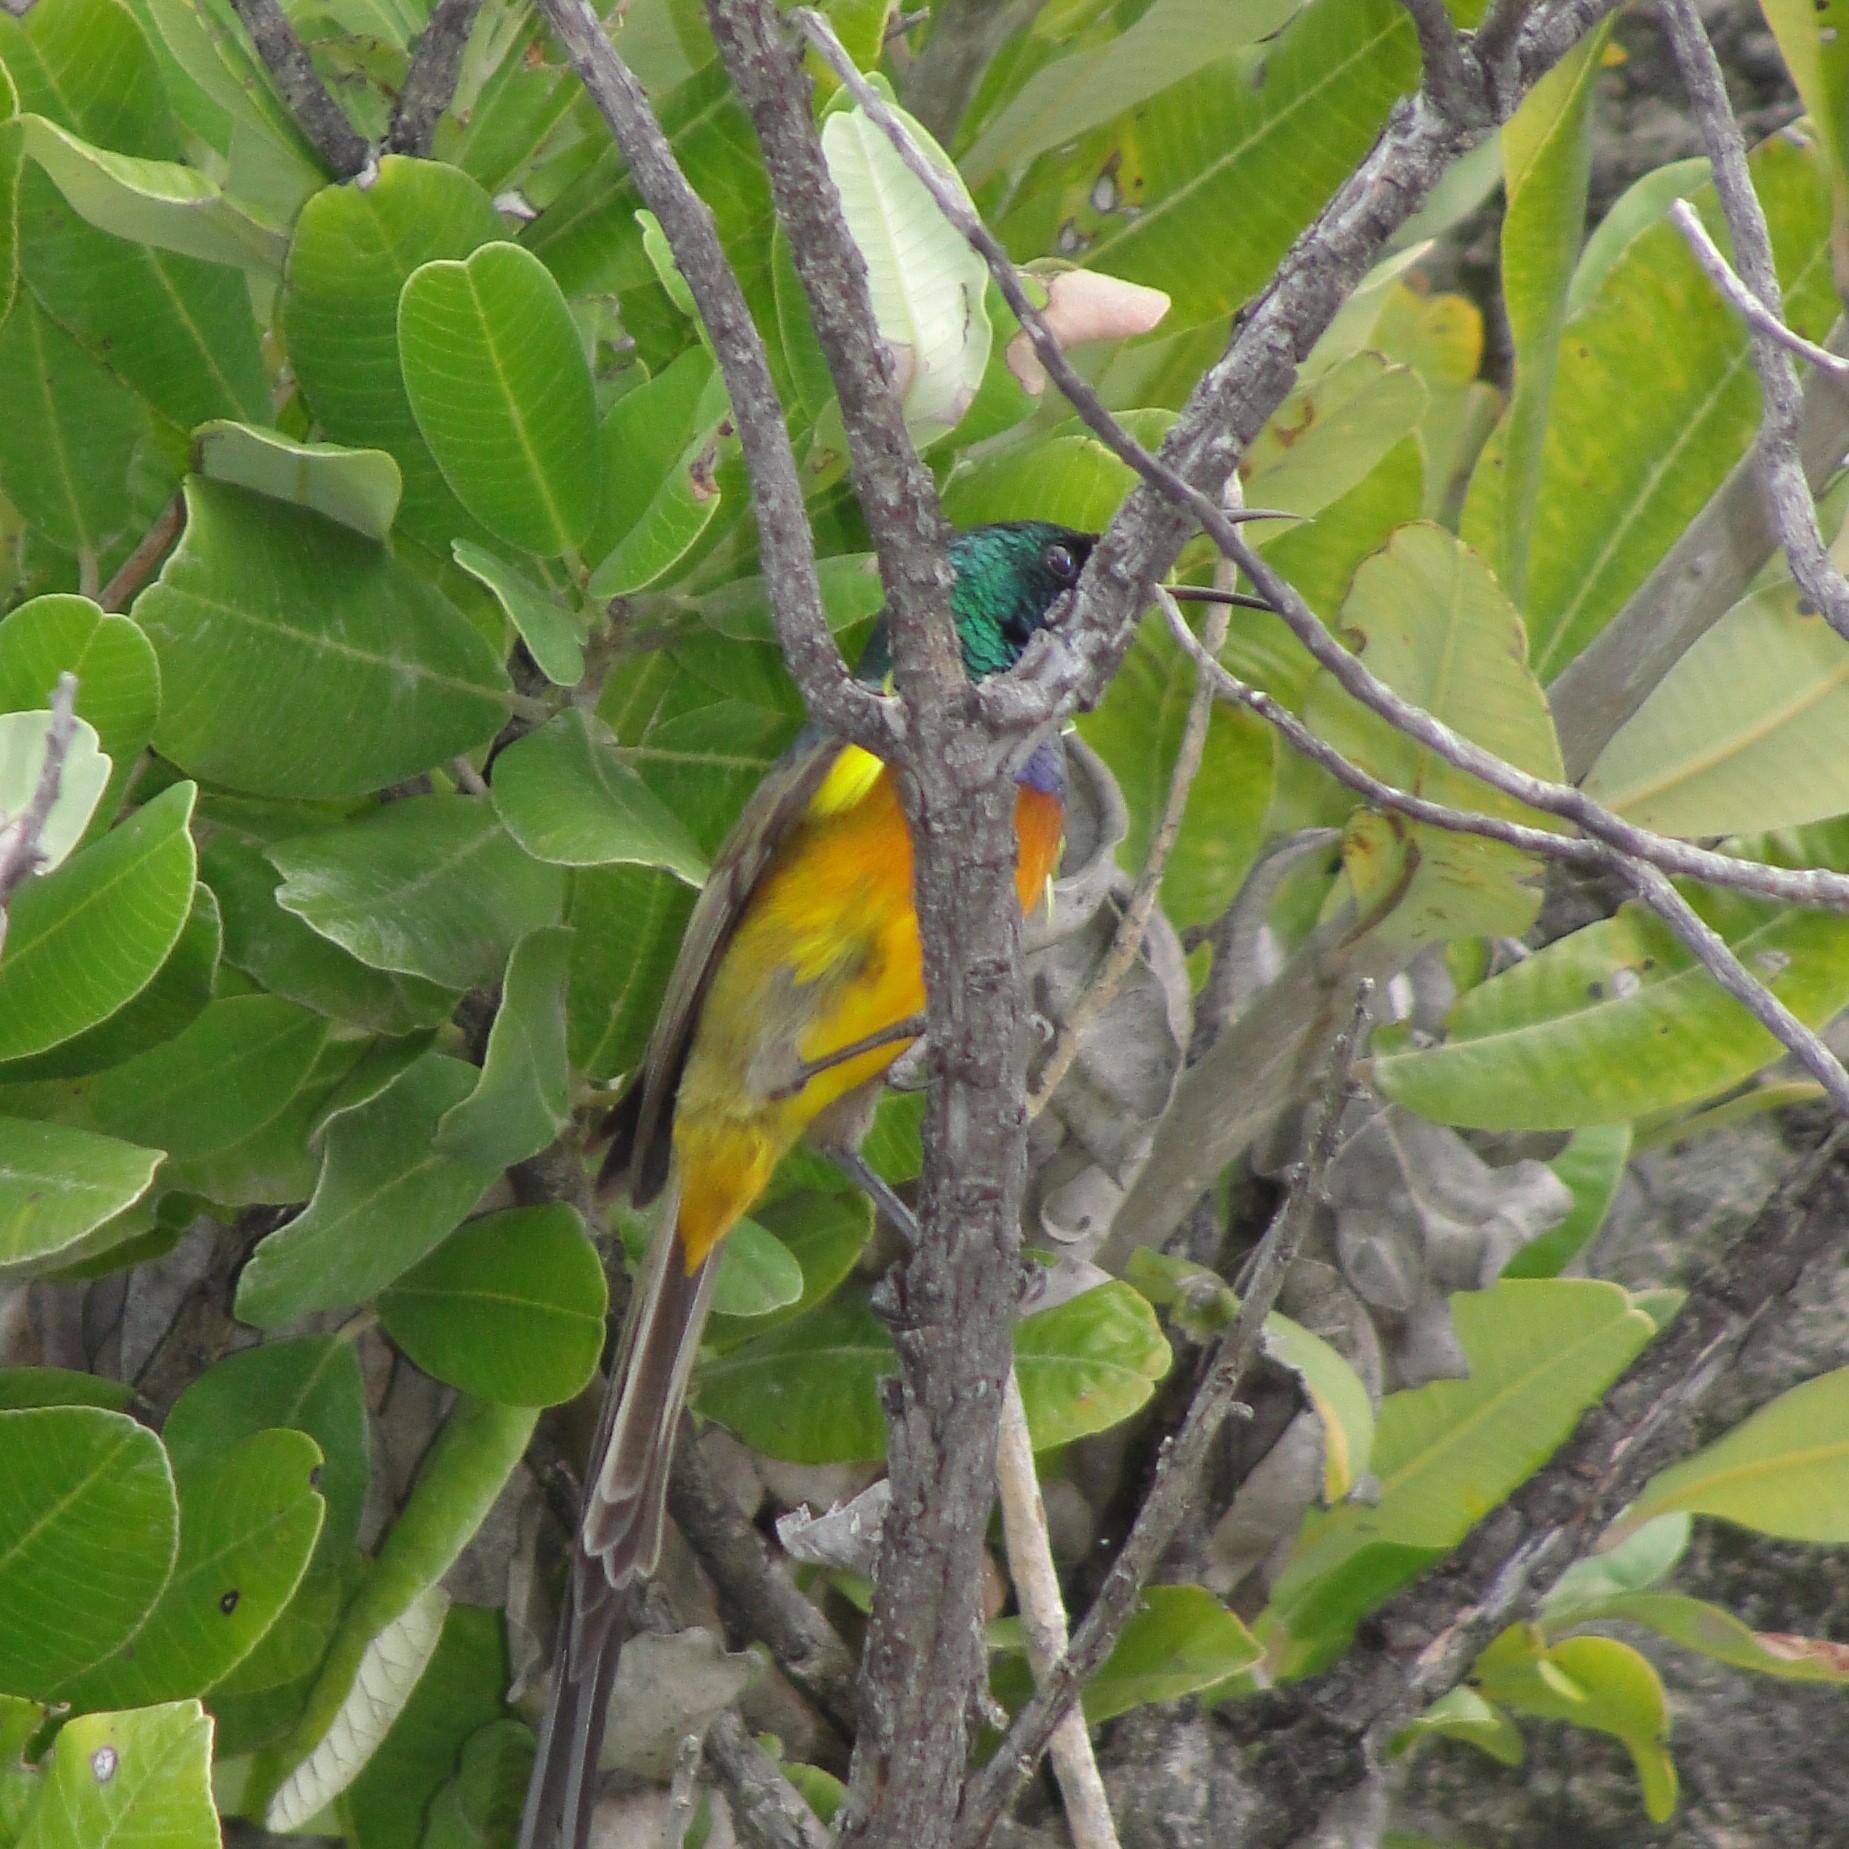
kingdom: Animalia
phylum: Chordata
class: Aves
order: Passeriformes
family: Nectariniidae
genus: Anthobaphes
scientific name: Anthobaphes violacea
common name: Orange-breasted sunbird
